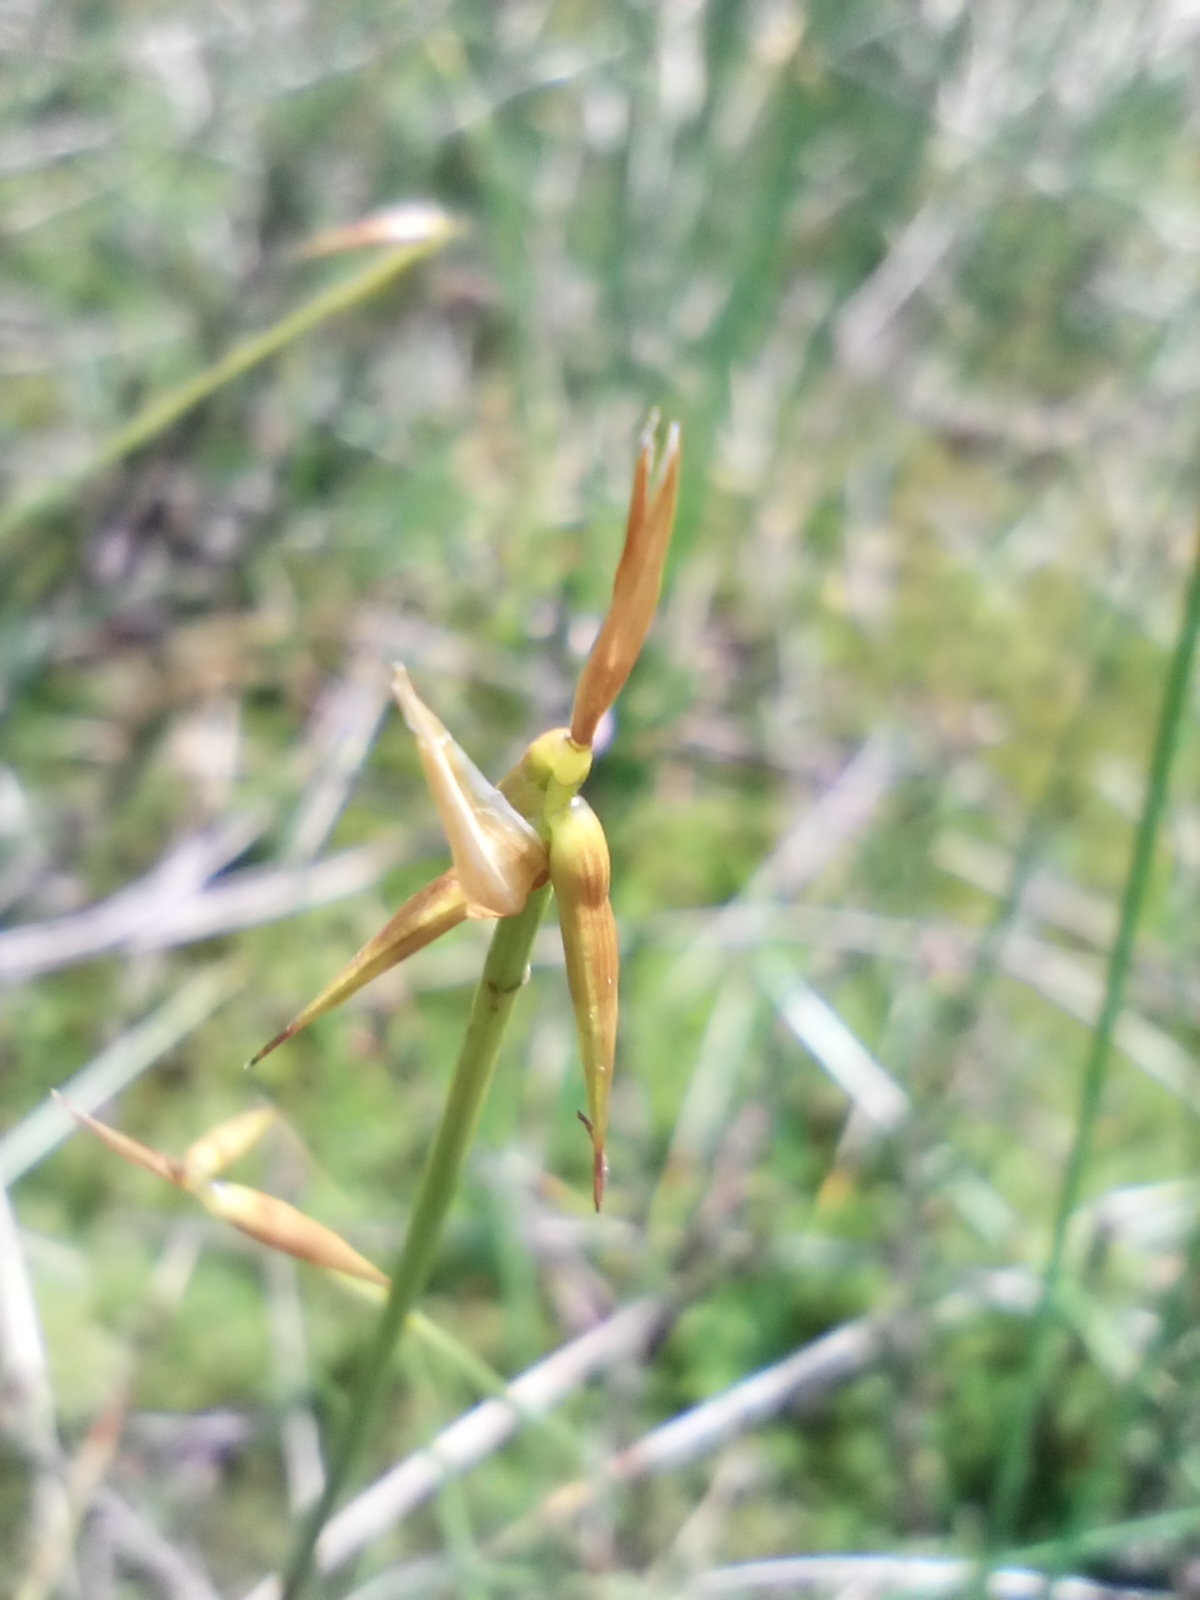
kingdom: Plantae
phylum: Tracheophyta
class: Liliopsida
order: Poales
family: Cyperaceae
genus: Carex
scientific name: Carex pauciflora
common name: Few-flowered sedge
